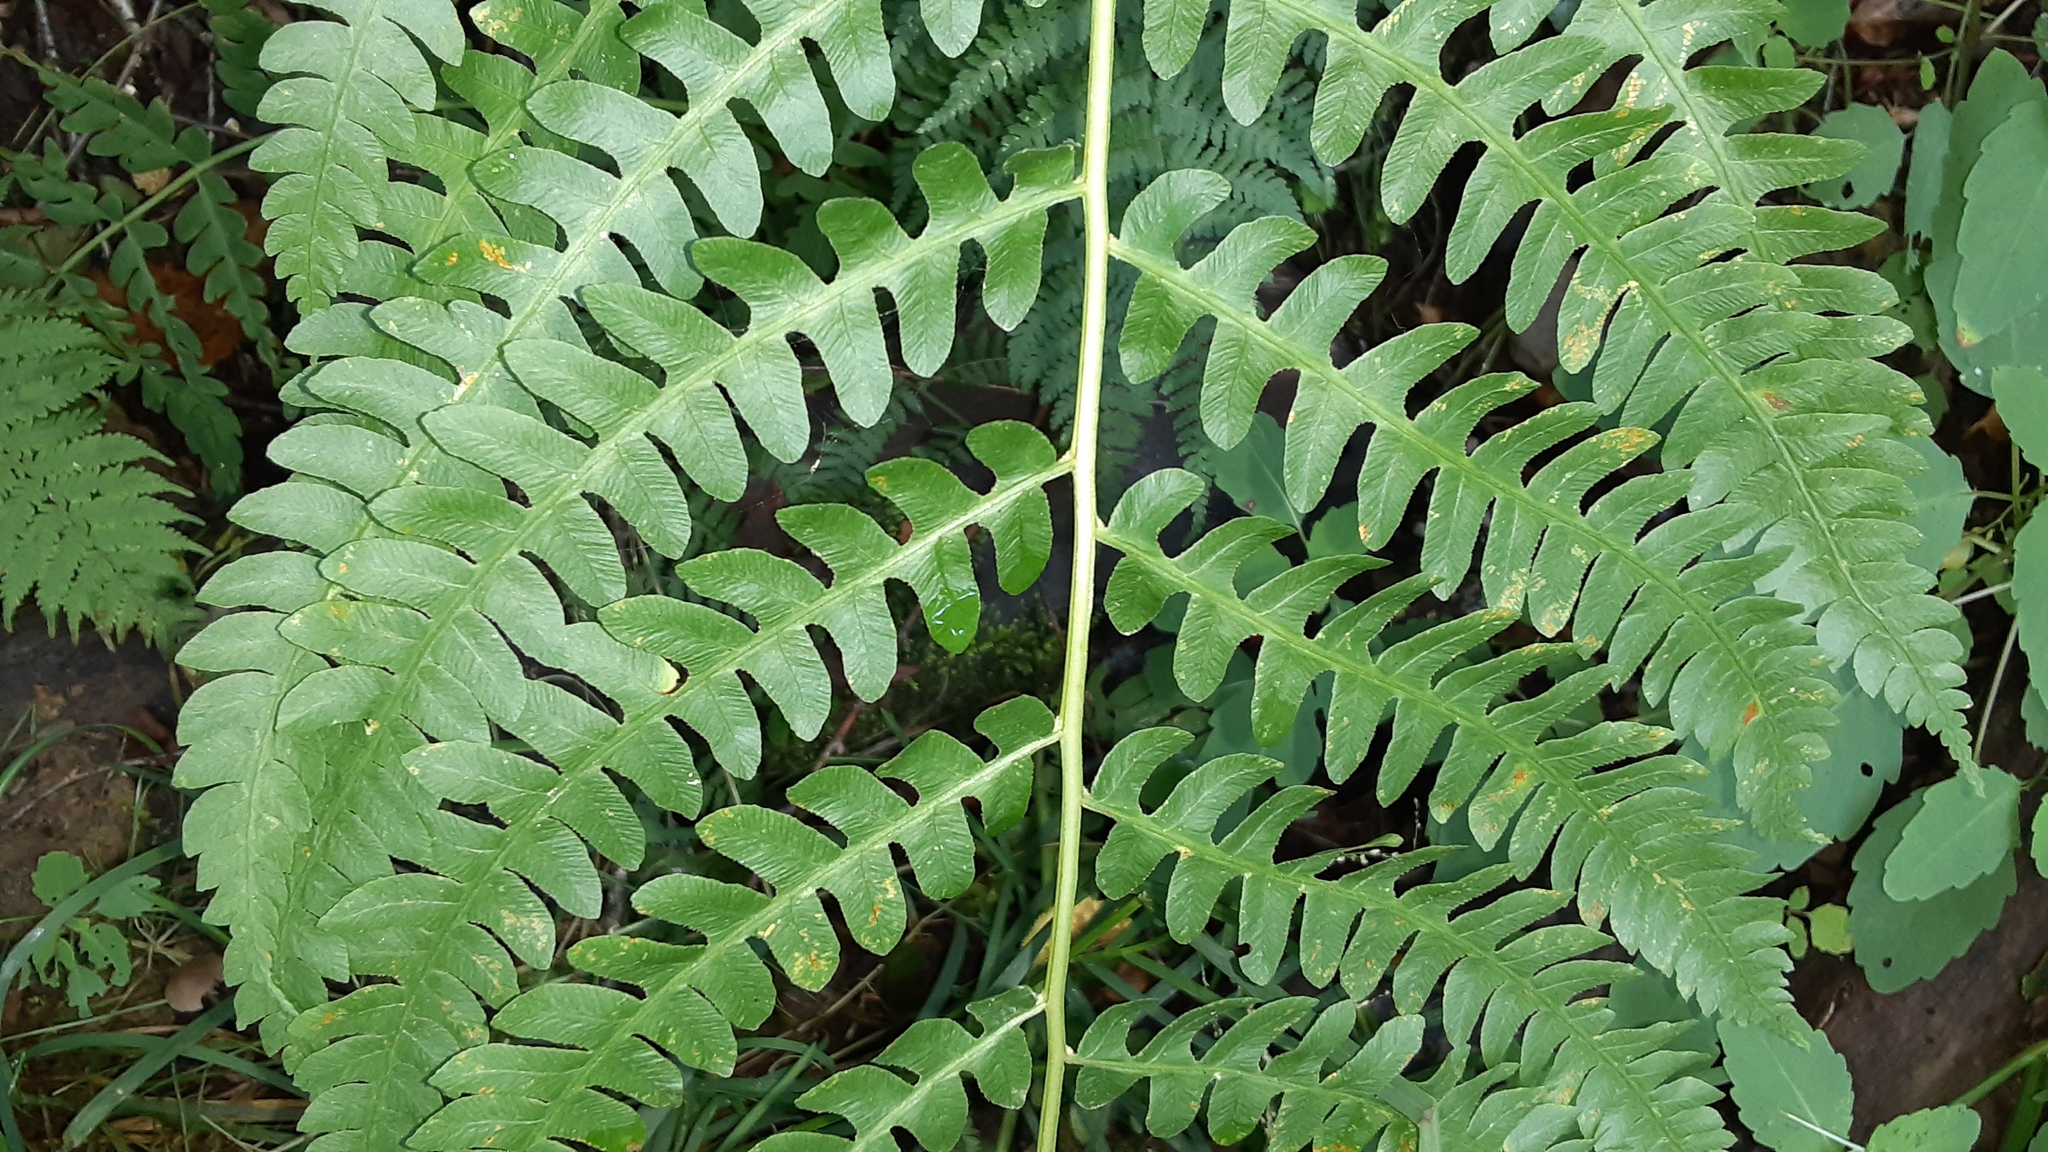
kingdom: Plantae
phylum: Tracheophyta
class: Polypodiopsida
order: Osmundales
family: Osmundaceae
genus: Osmundastrum
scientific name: Osmundastrum cinnamomeum
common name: Cinnamon fern
